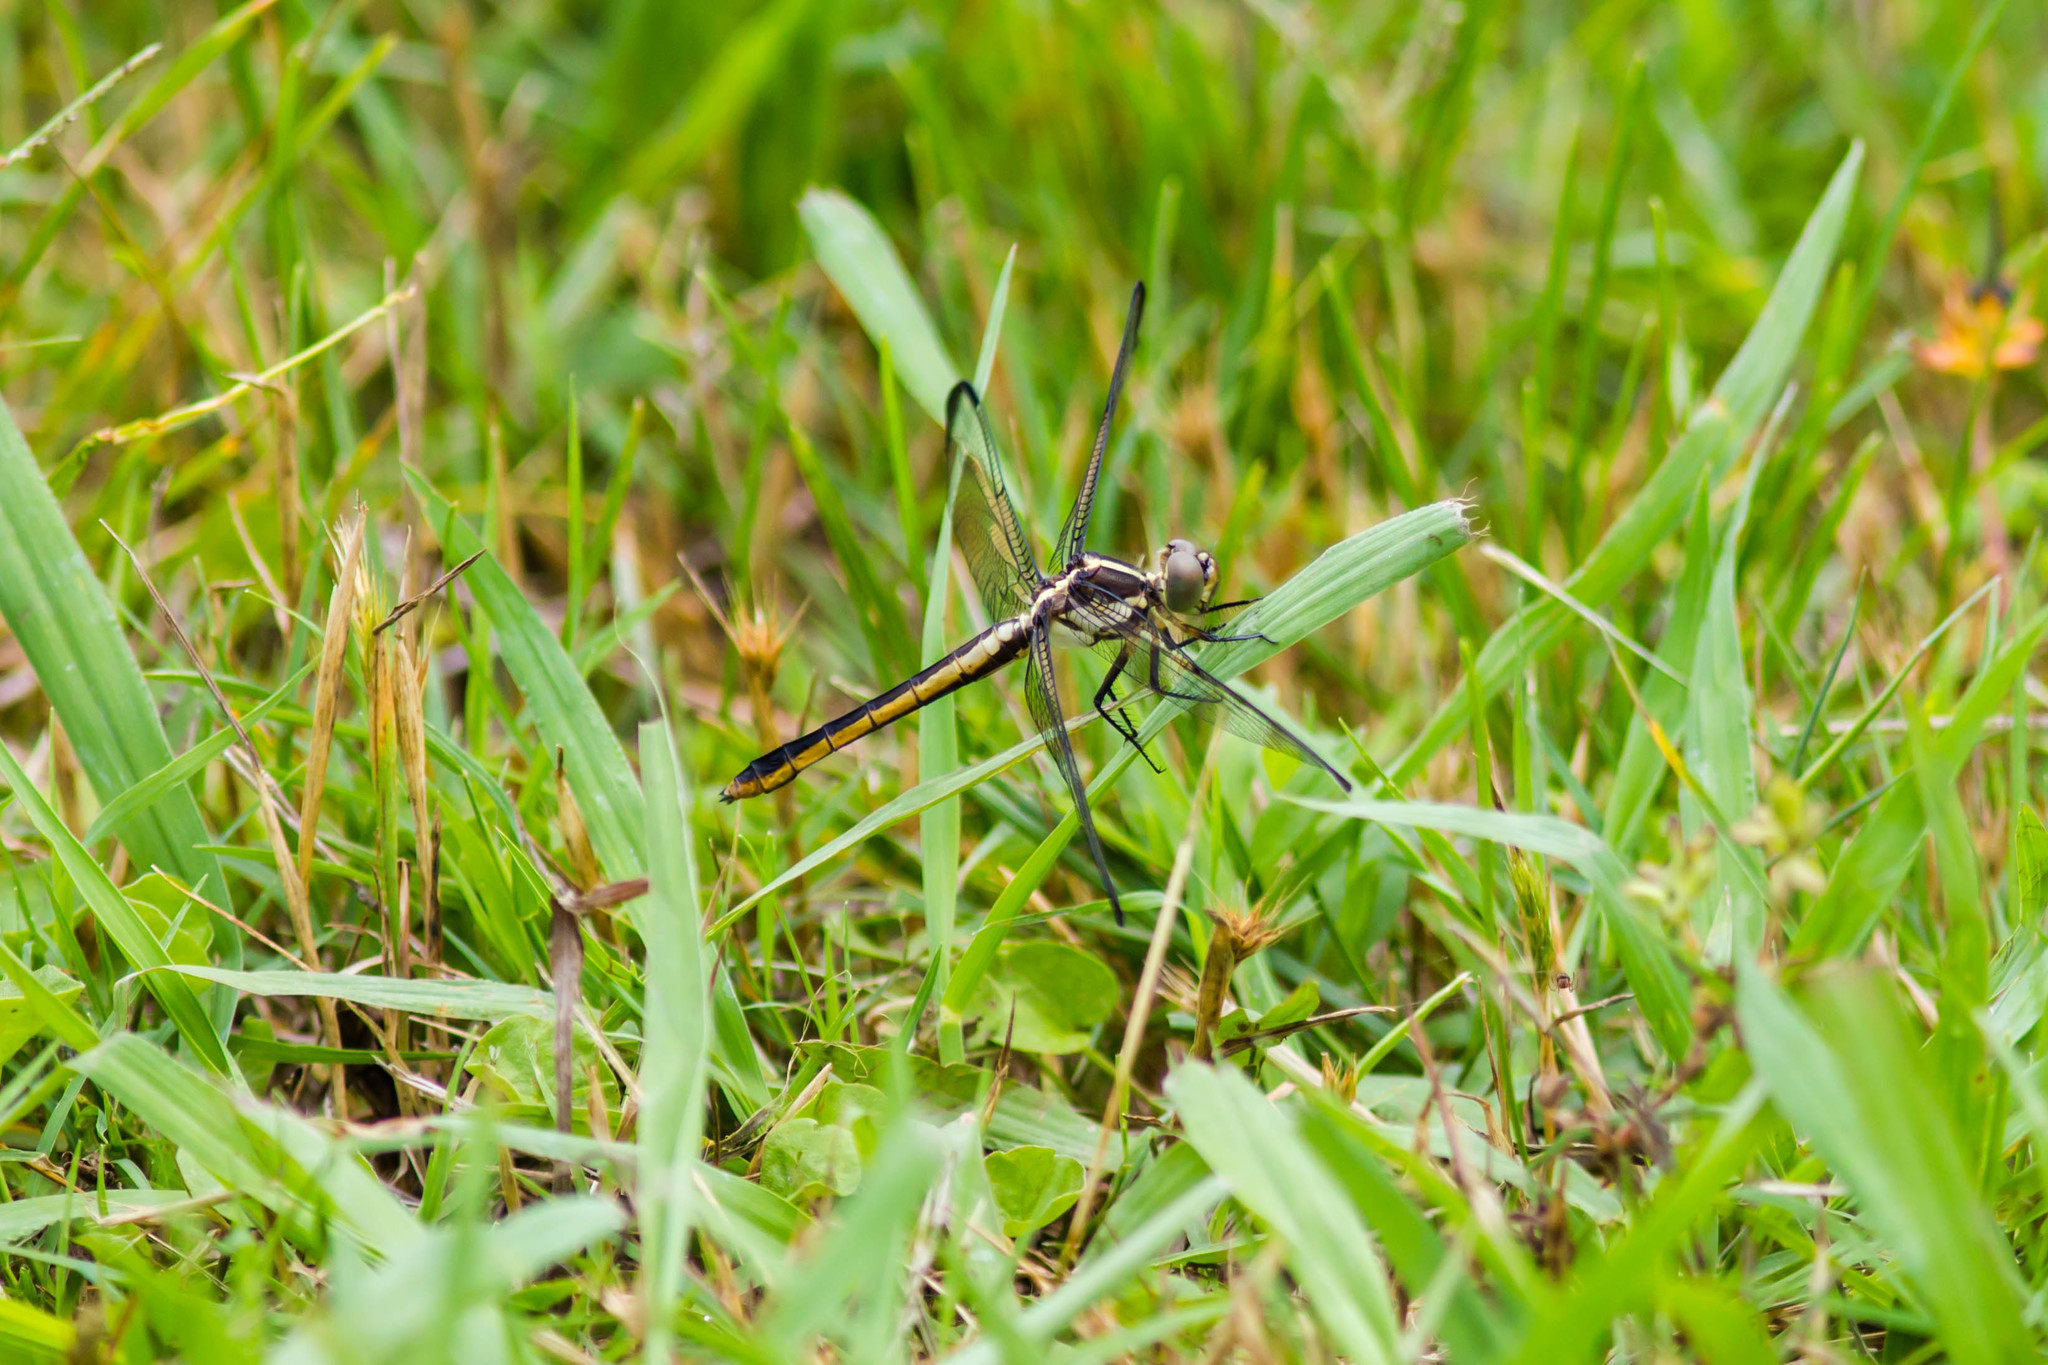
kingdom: Animalia
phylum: Arthropoda
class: Insecta
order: Odonata
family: Libellulidae
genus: Libellula
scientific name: Libellula incesta
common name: Slaty skimmer
